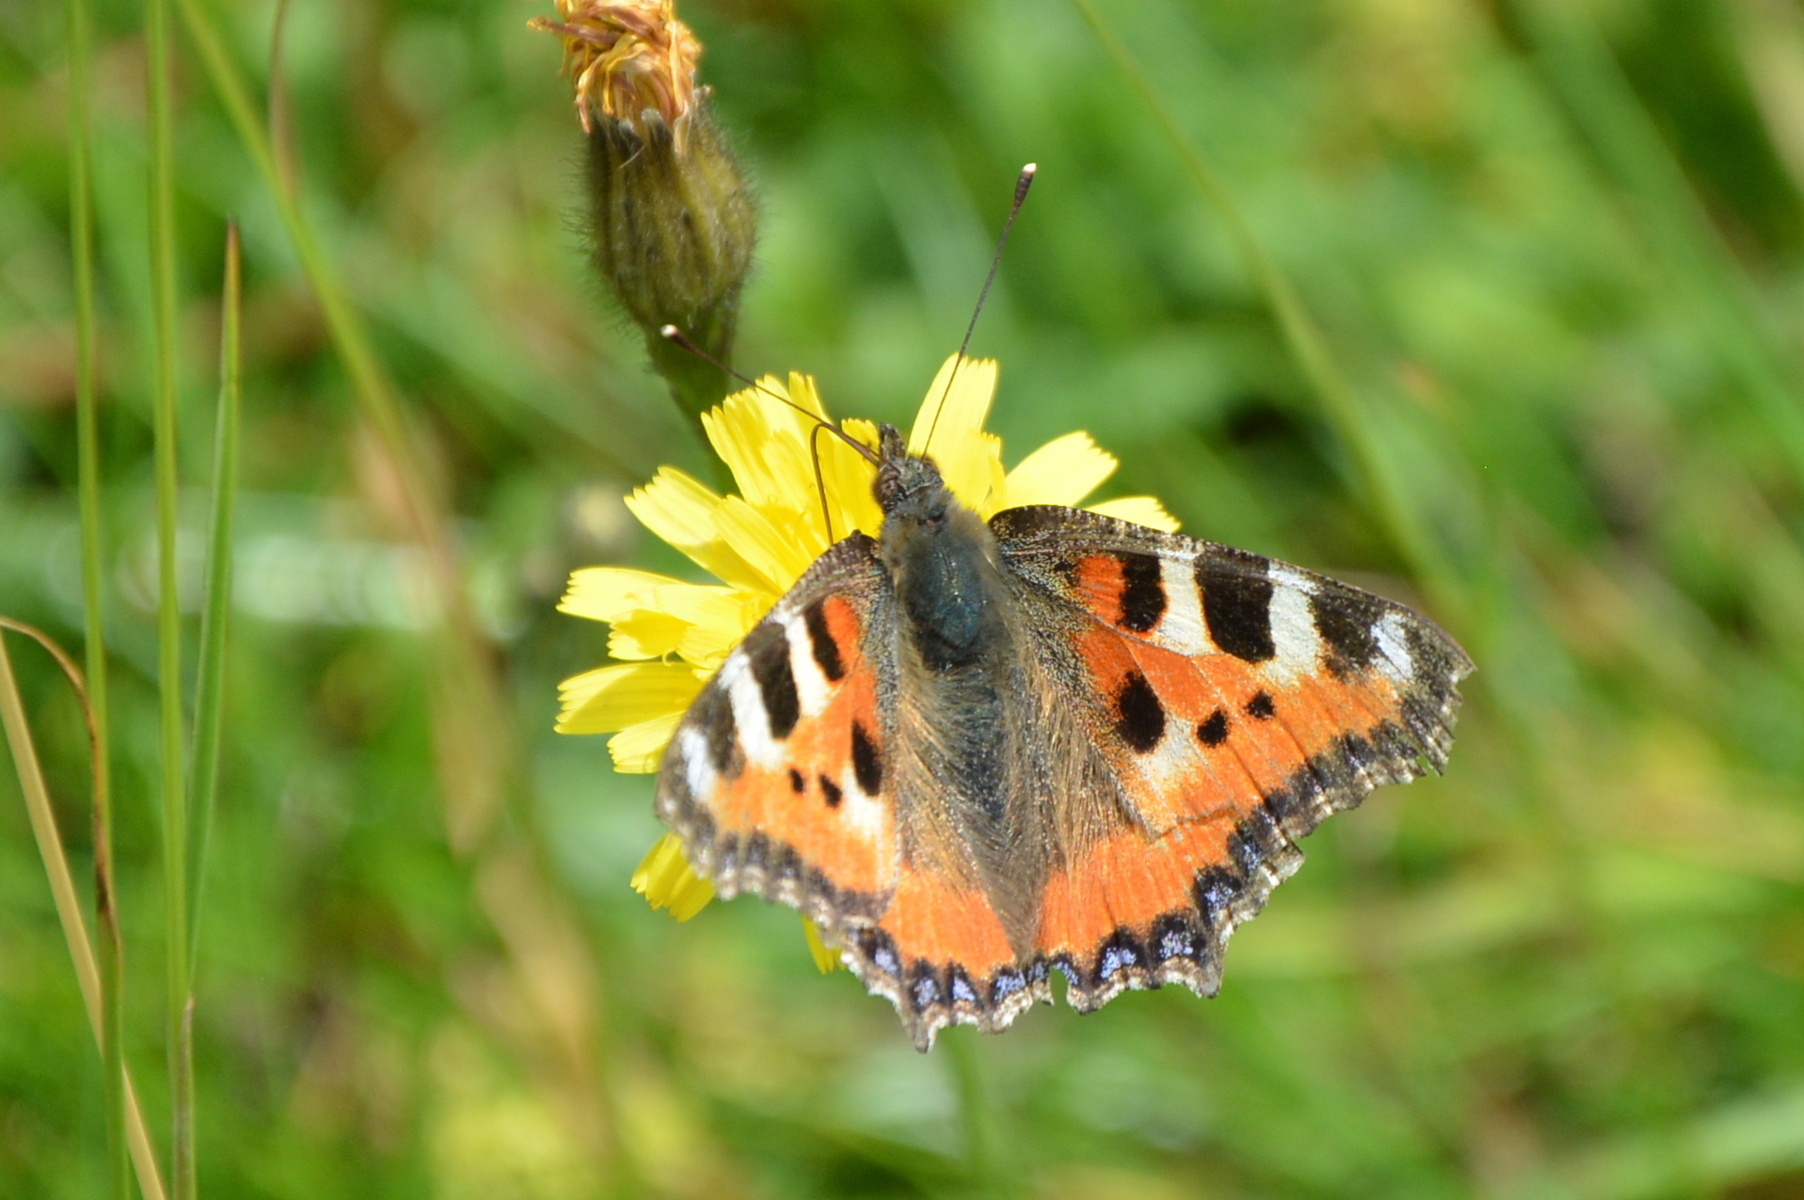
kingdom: Animalia
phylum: Arthropoda
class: Insecta
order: Lepidoptera
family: Nymphalidae
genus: Aglais
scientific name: Aglais urticae
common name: Small tortoiseshell
